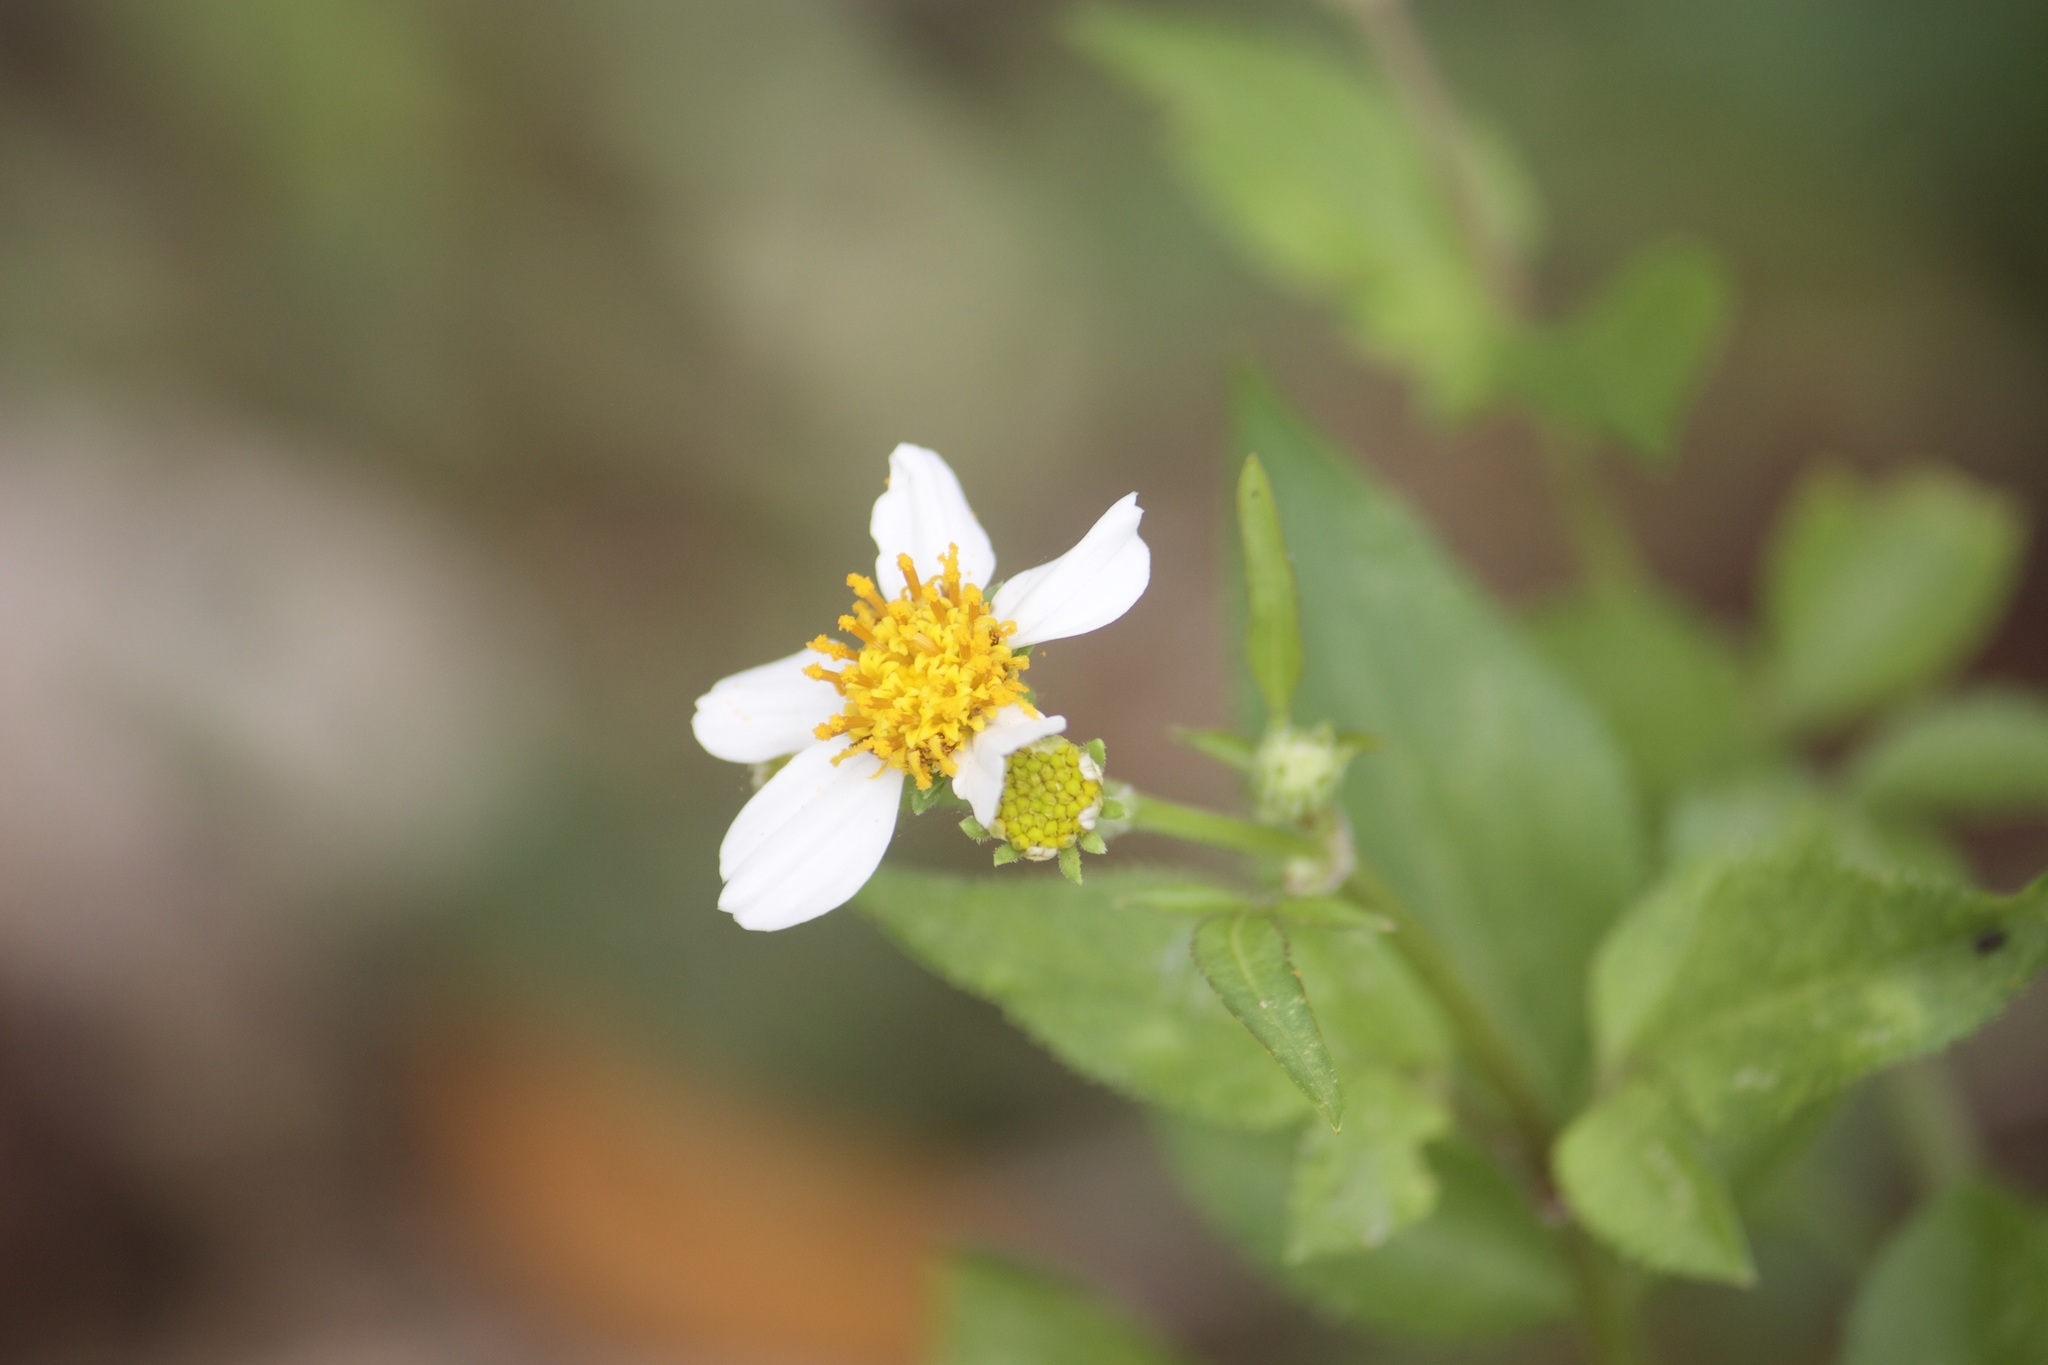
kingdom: Plantae
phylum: Tracheophyta
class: Magnoliopsida
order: Asterales
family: Asteraceae
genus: Bidens
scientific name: Bidens alba
